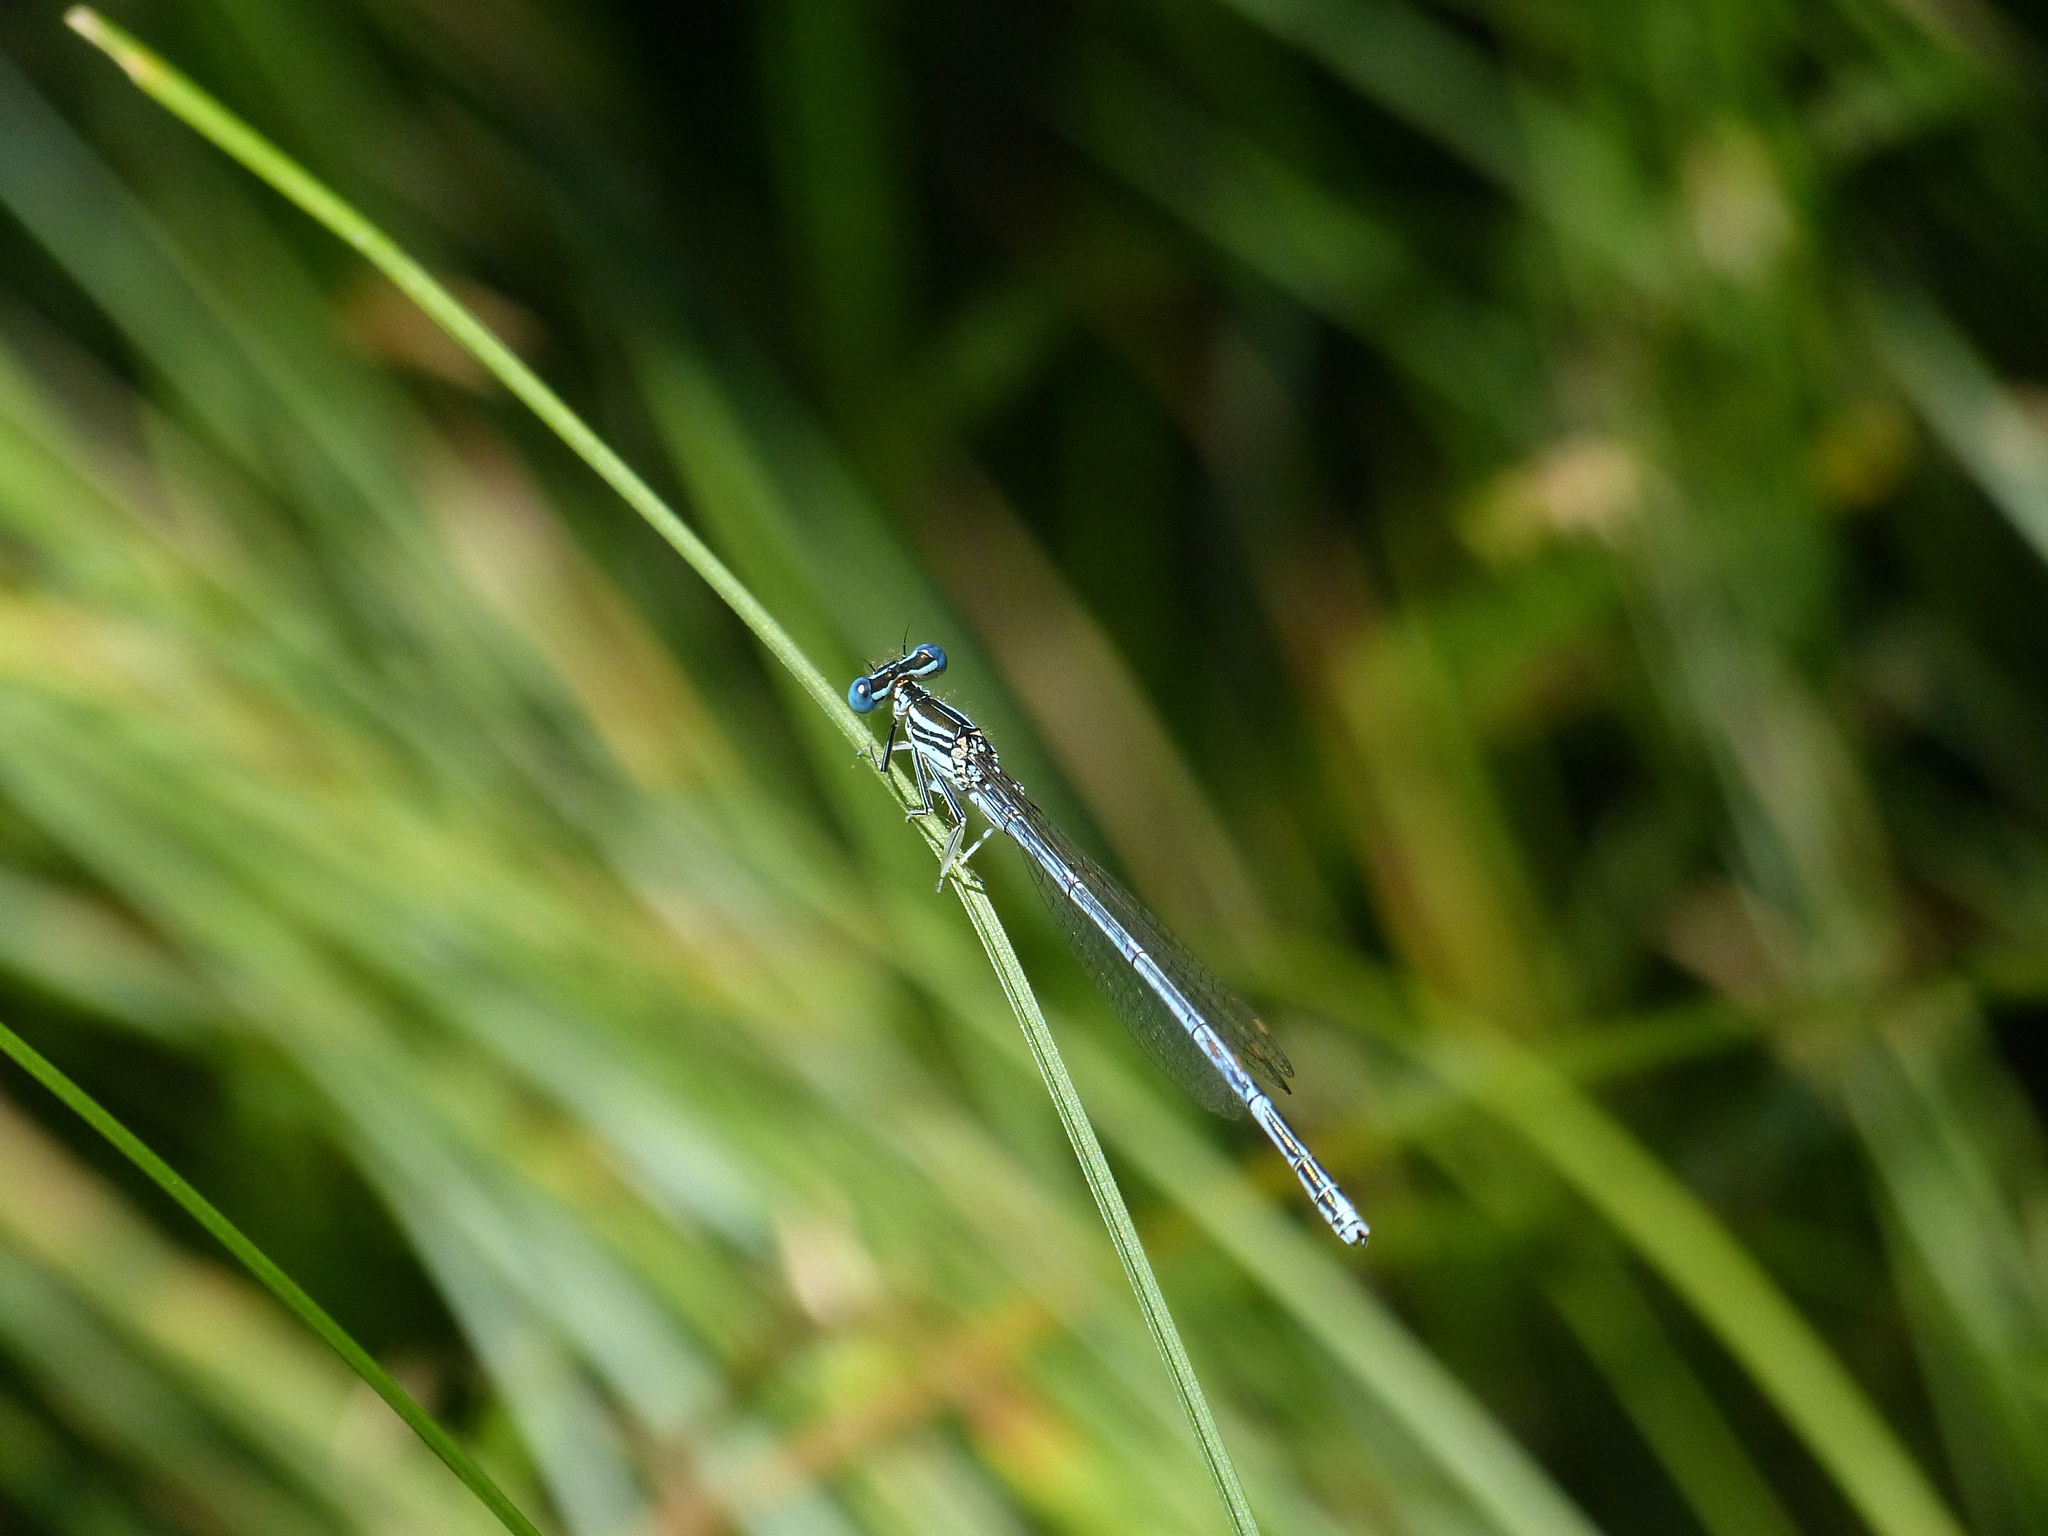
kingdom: Animalia
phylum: Arthropoda
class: Insecta
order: Odonata
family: Platycnemididae
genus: Platycnemis
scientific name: Platycnemis pennipes
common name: White-legged damselfly
